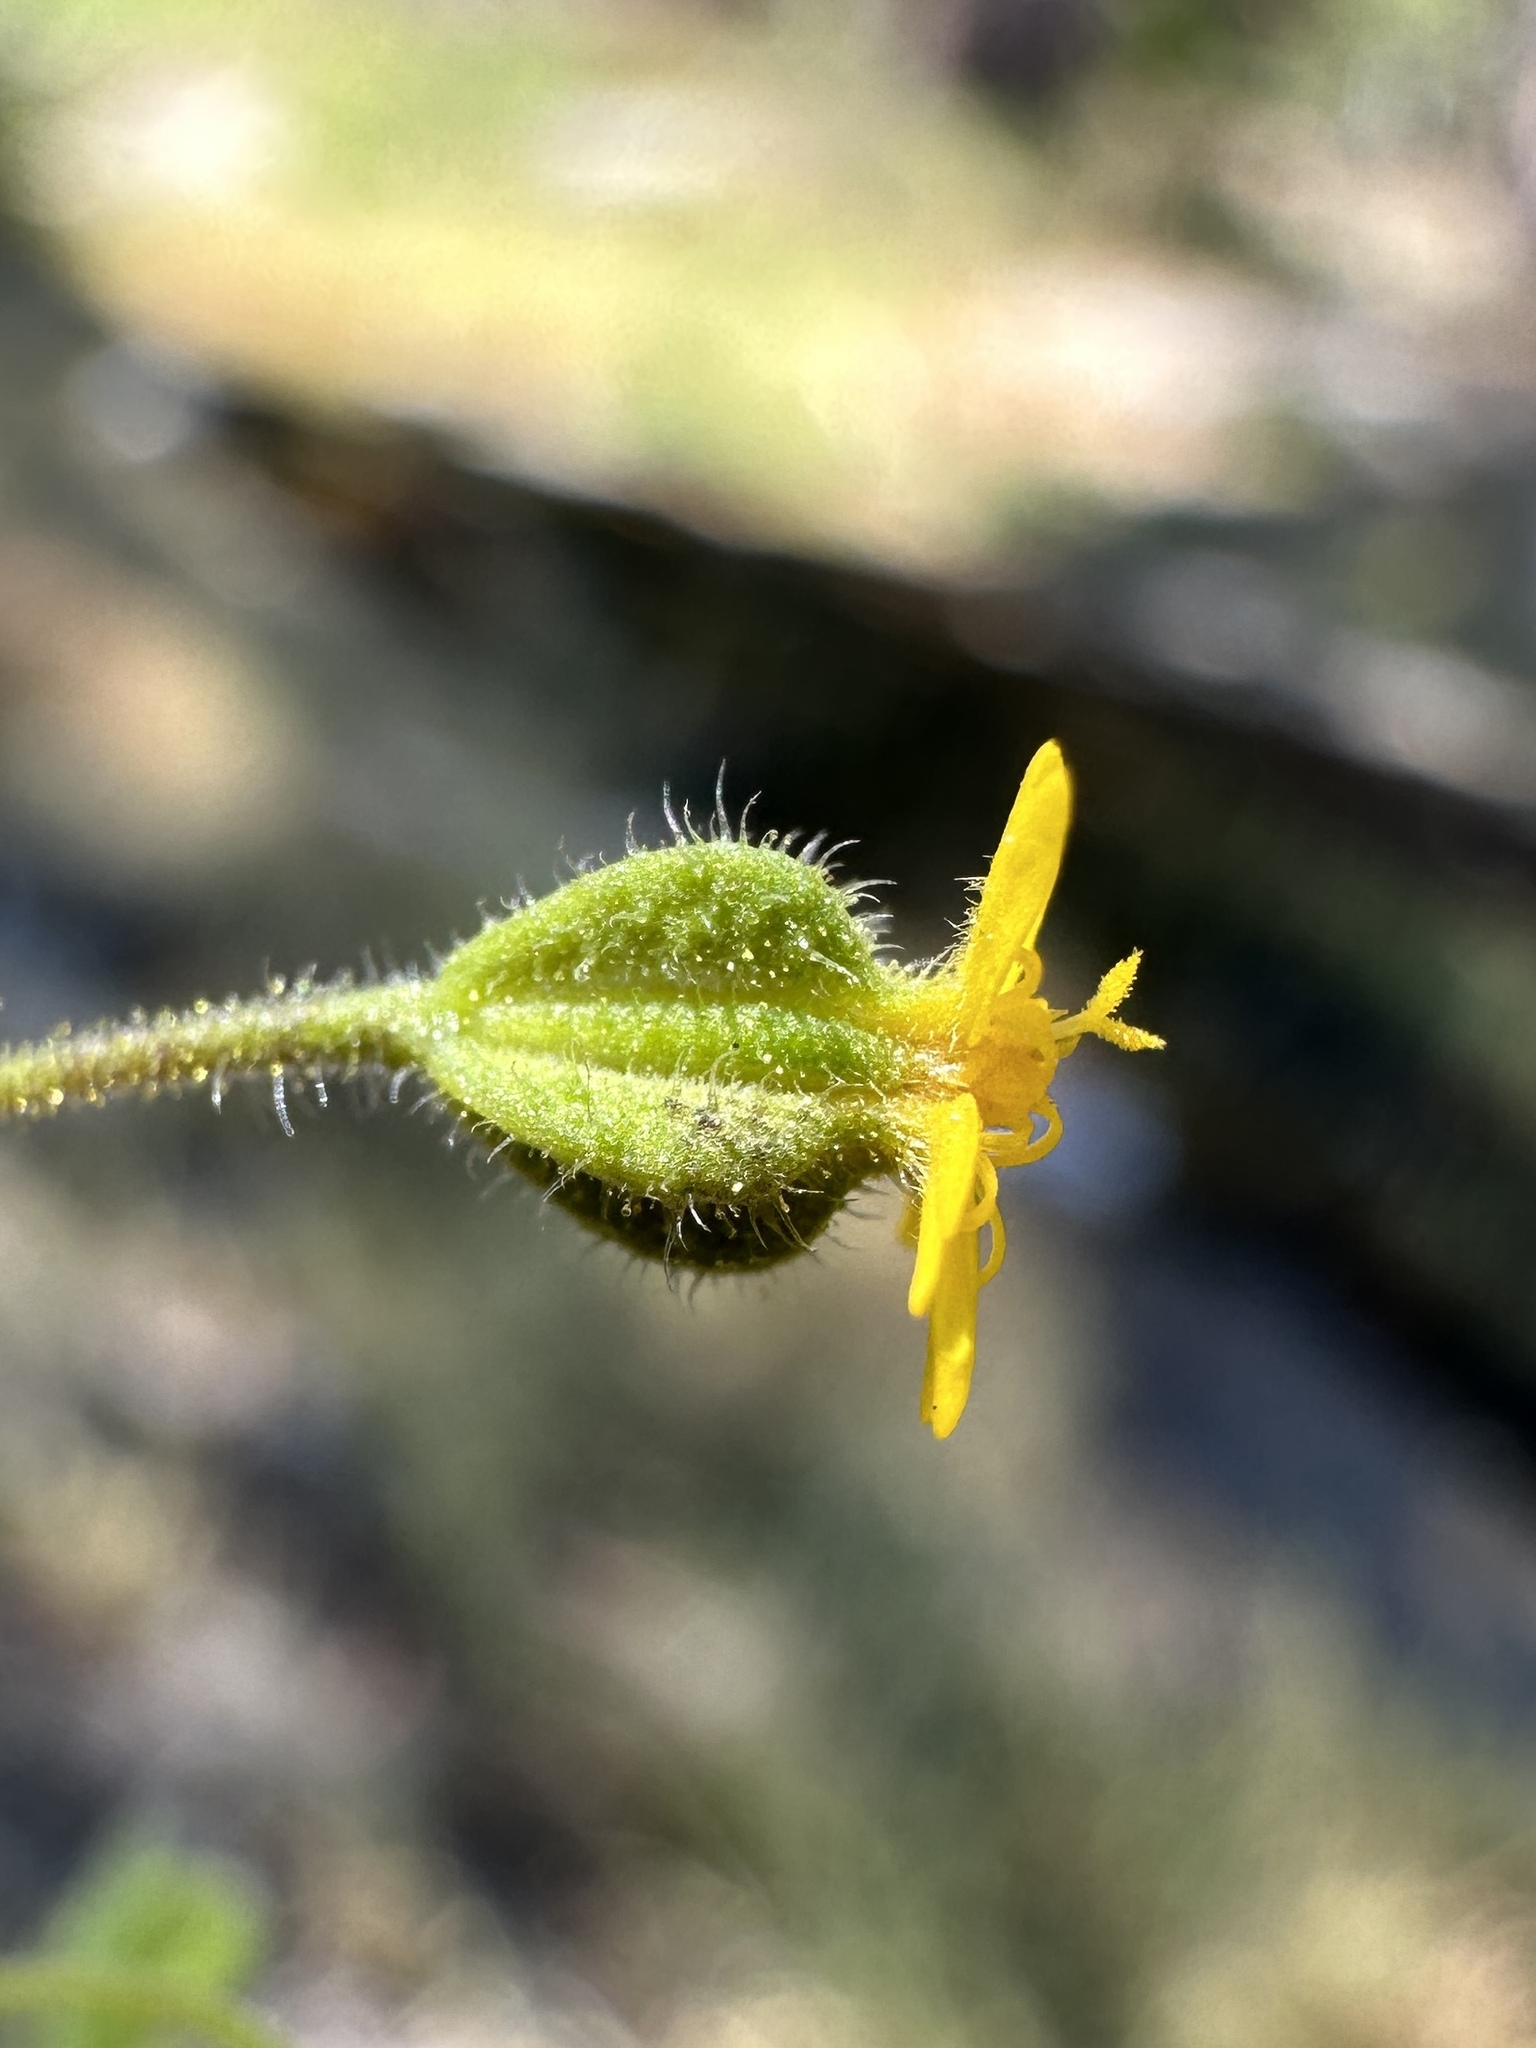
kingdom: Plantae
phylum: Tracheophyta
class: Magnoliopsida
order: Asterales
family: Asteraceae
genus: Jensia
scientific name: Jensia yosemitana
